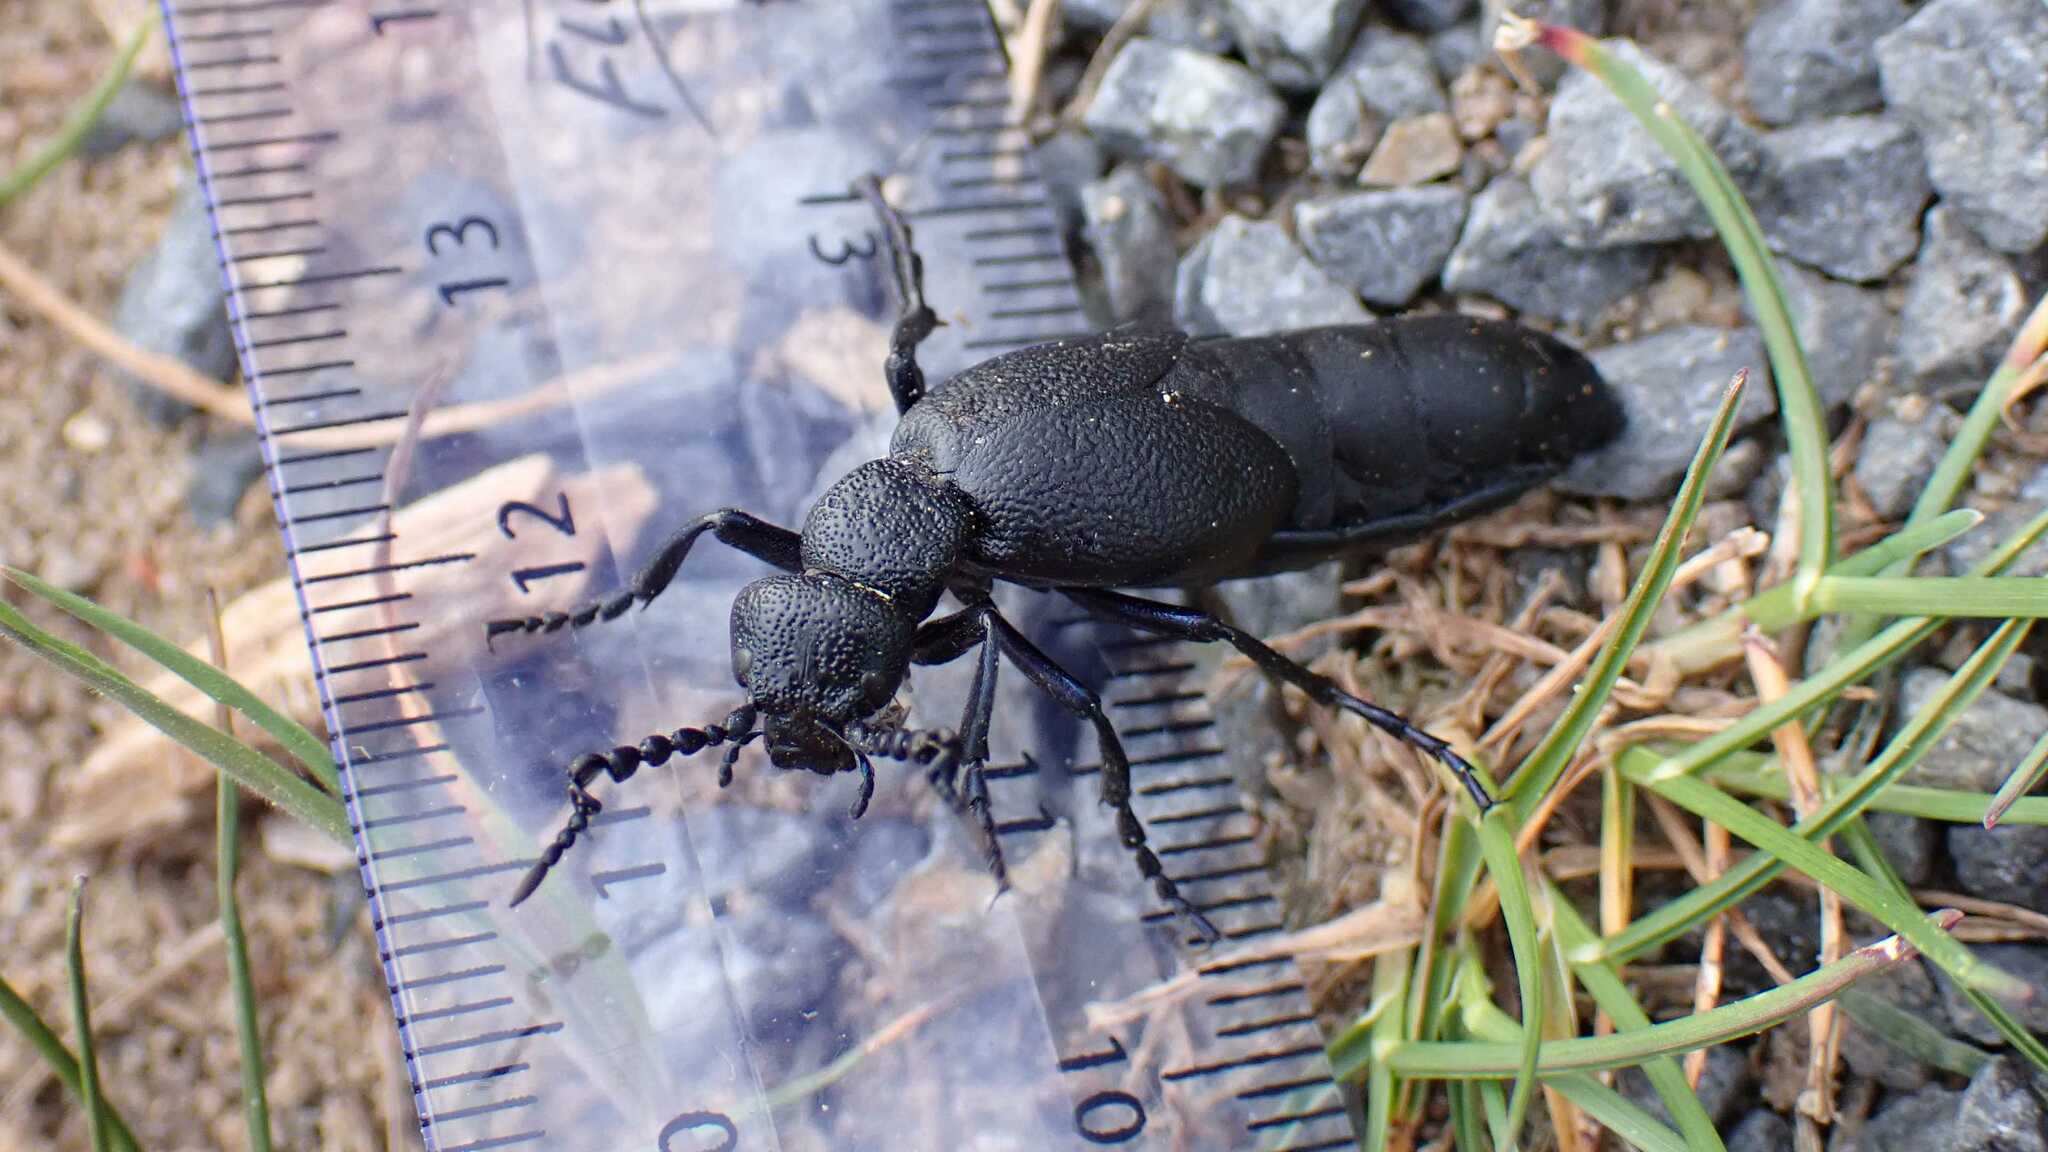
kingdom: Animalia
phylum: Arthropoda
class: Insecta
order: Coleoptera
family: Meloidae
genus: Meloe
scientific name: Meloe proscarabaeus
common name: Black oil-beetle
